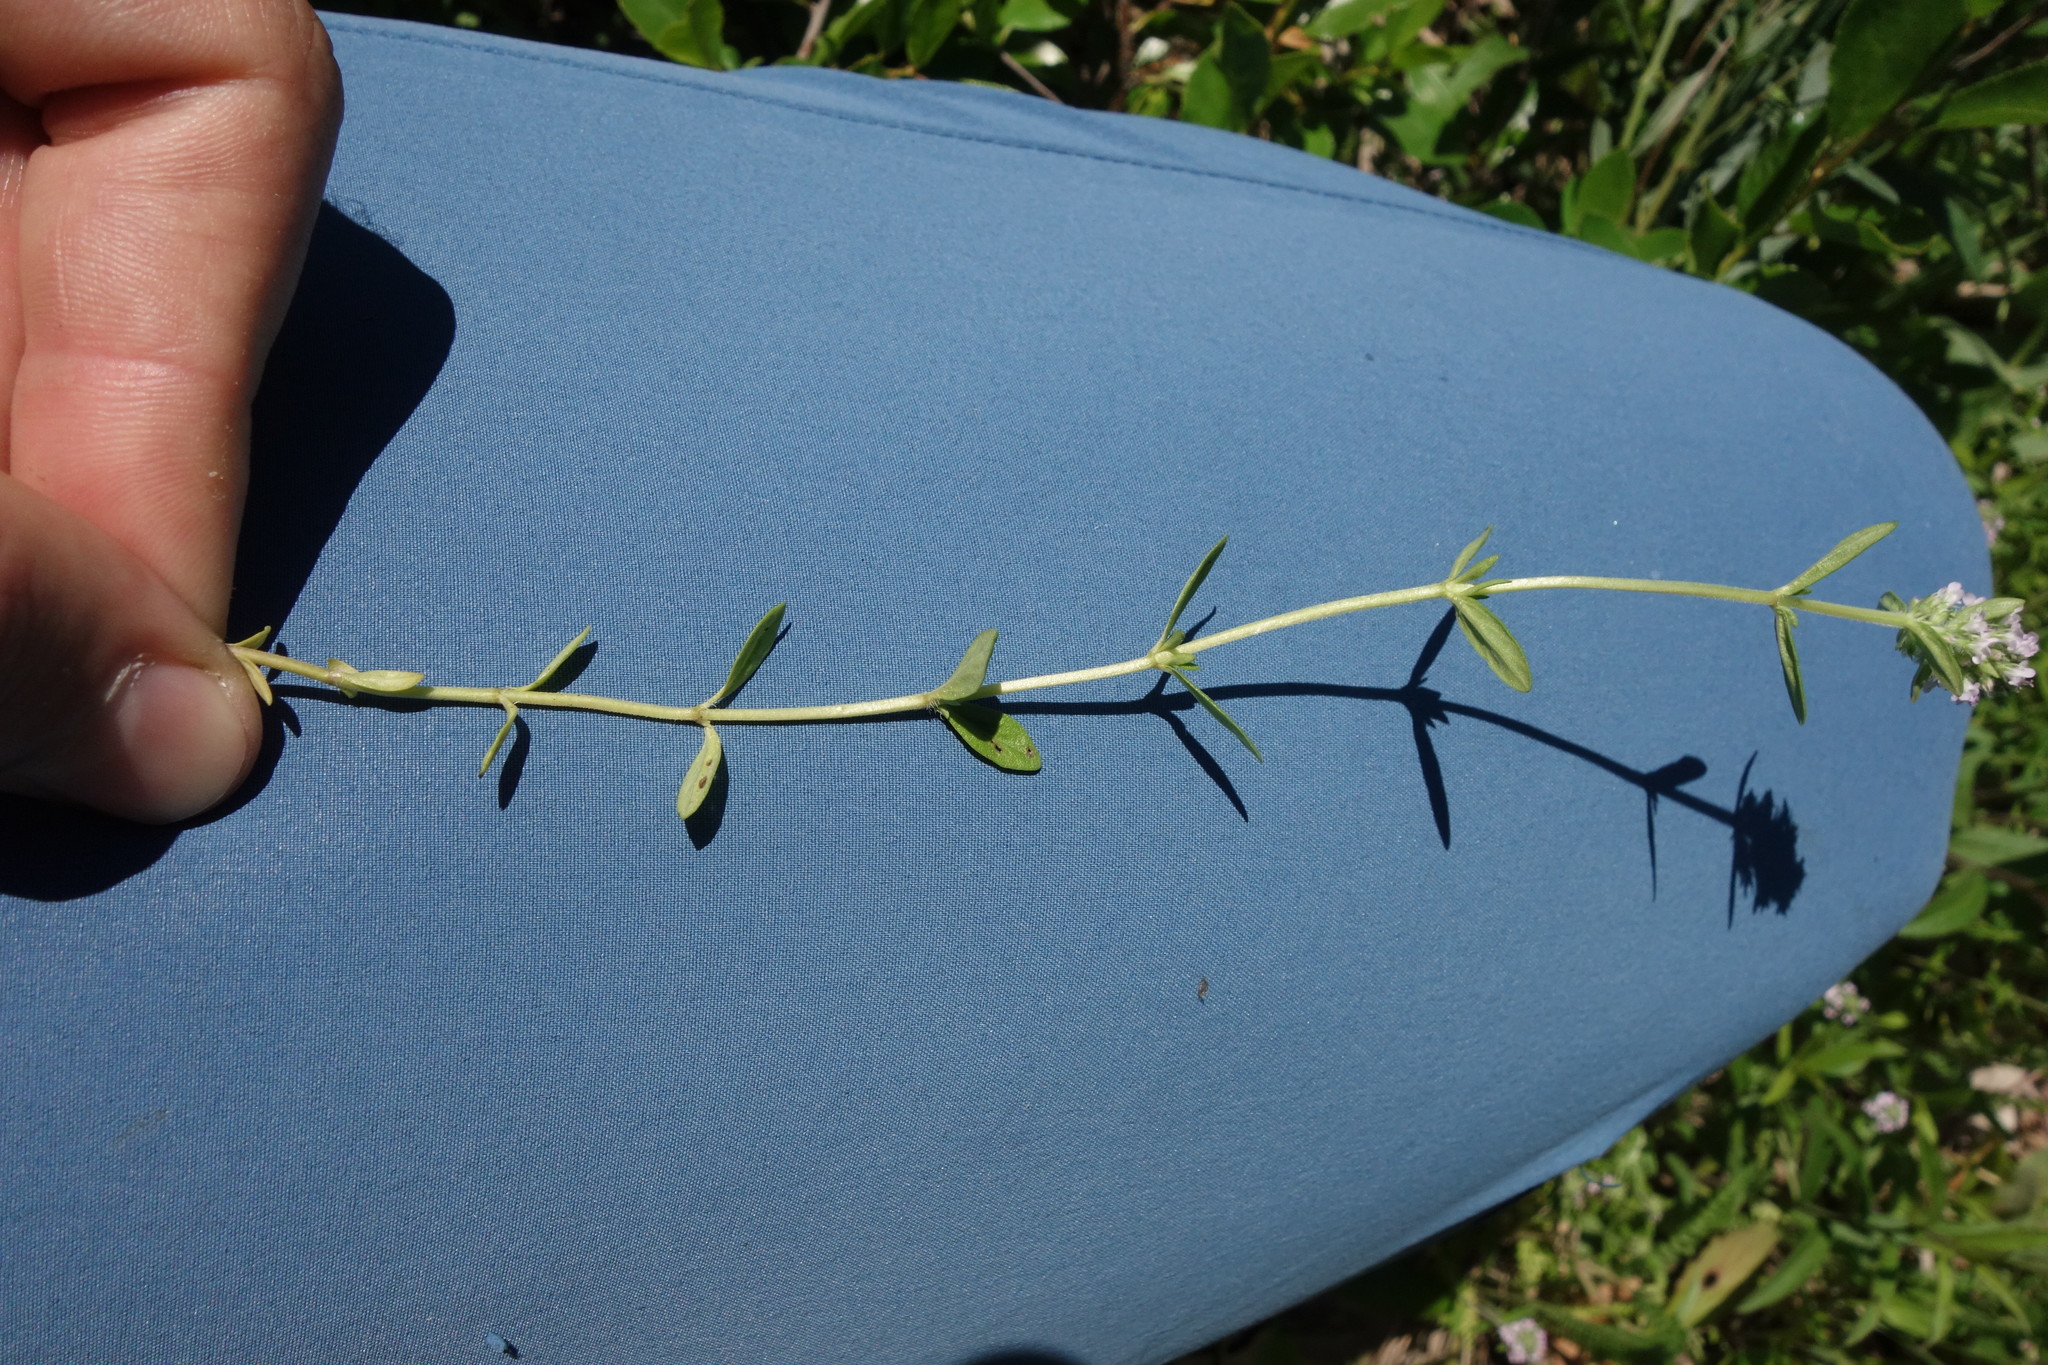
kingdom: Plantae
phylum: Tracheophyta
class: Magnoliopsida
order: Lamiales
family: Lamiaceae
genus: Thymus
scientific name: Thymus pannonicus
